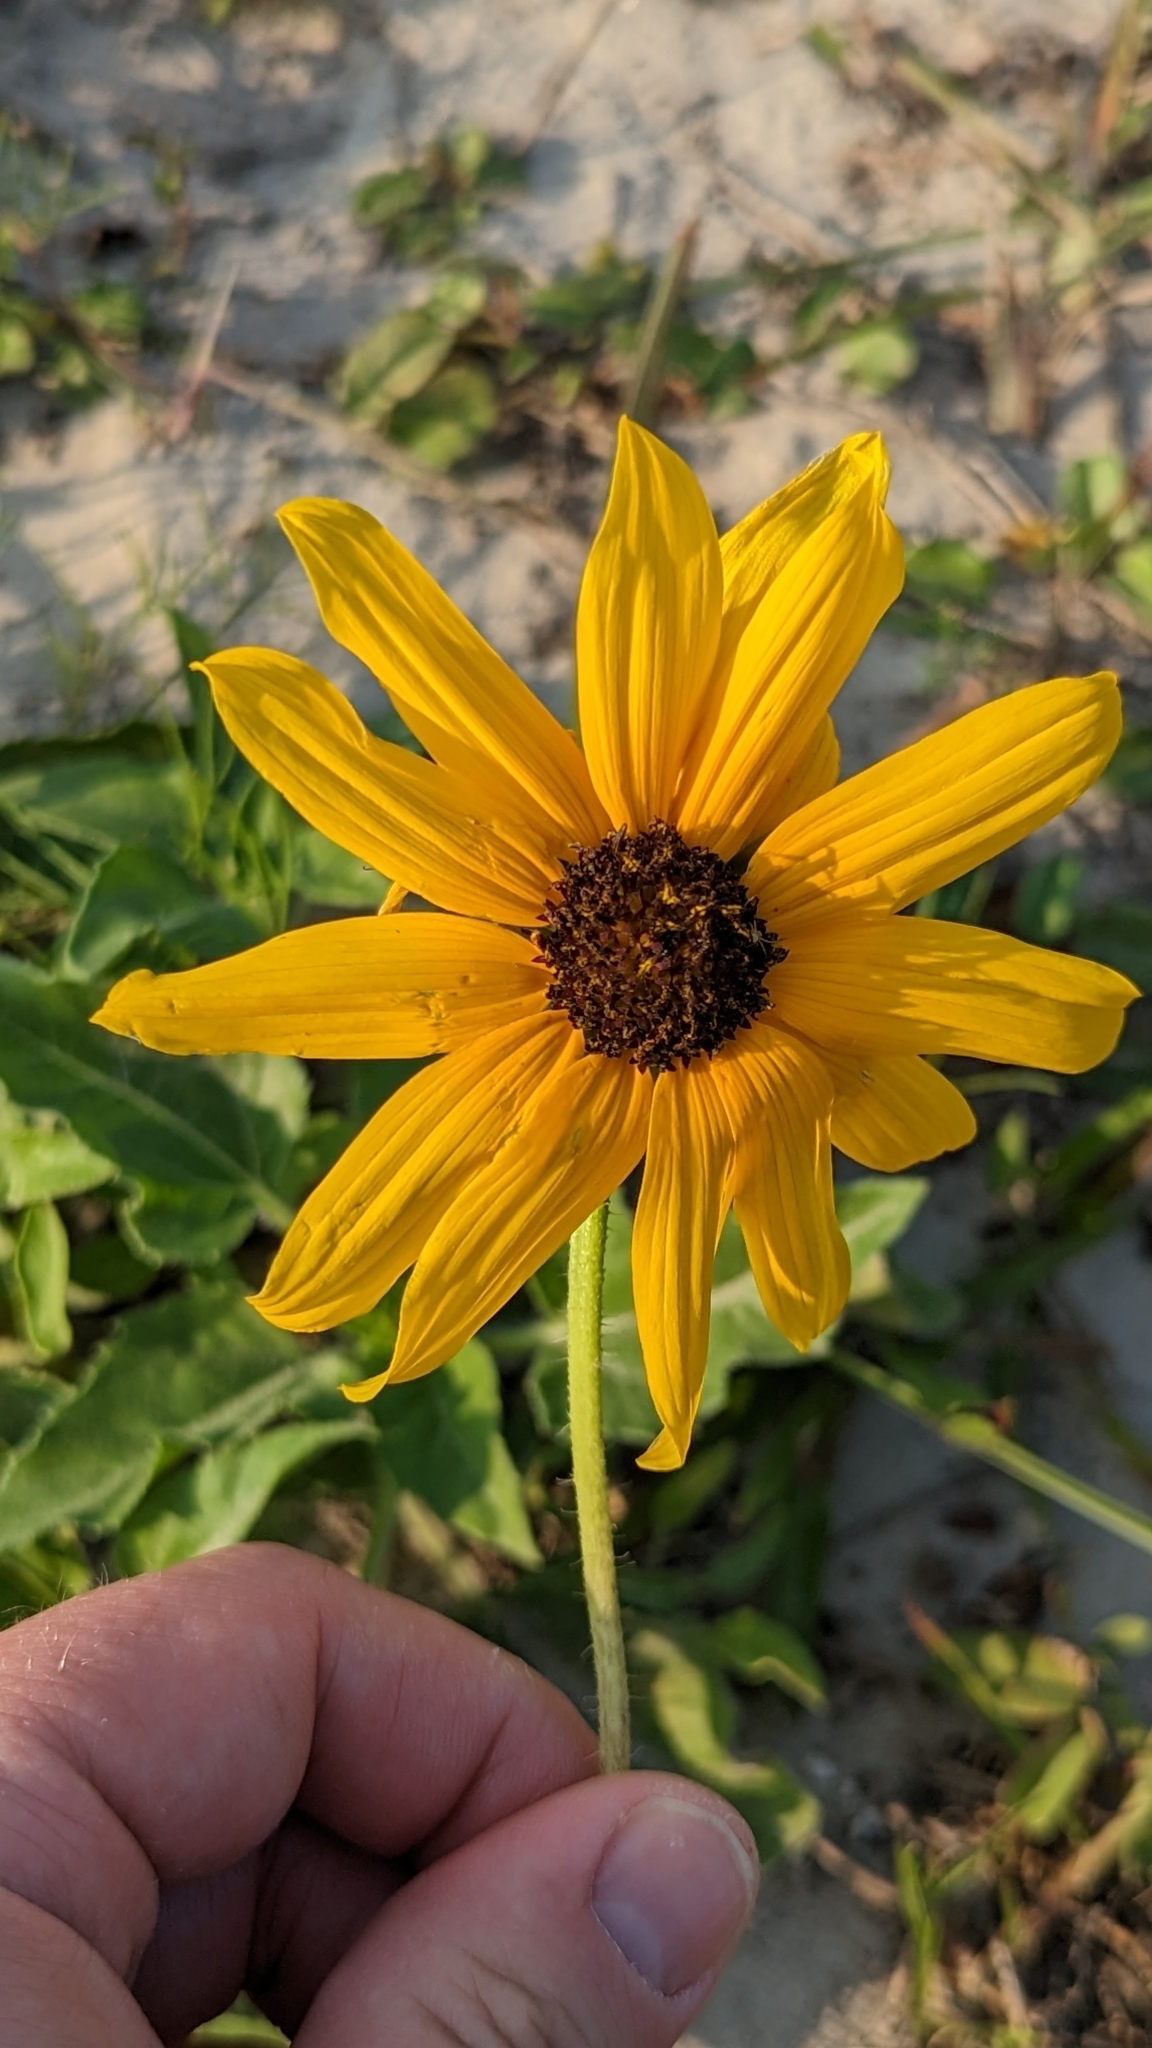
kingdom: Plantae
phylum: Tracheophyta
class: Magnoliopsida
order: Asterales
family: Asteraceae
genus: Helianthus
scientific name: Helianthus praecox
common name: Texas sunflower
